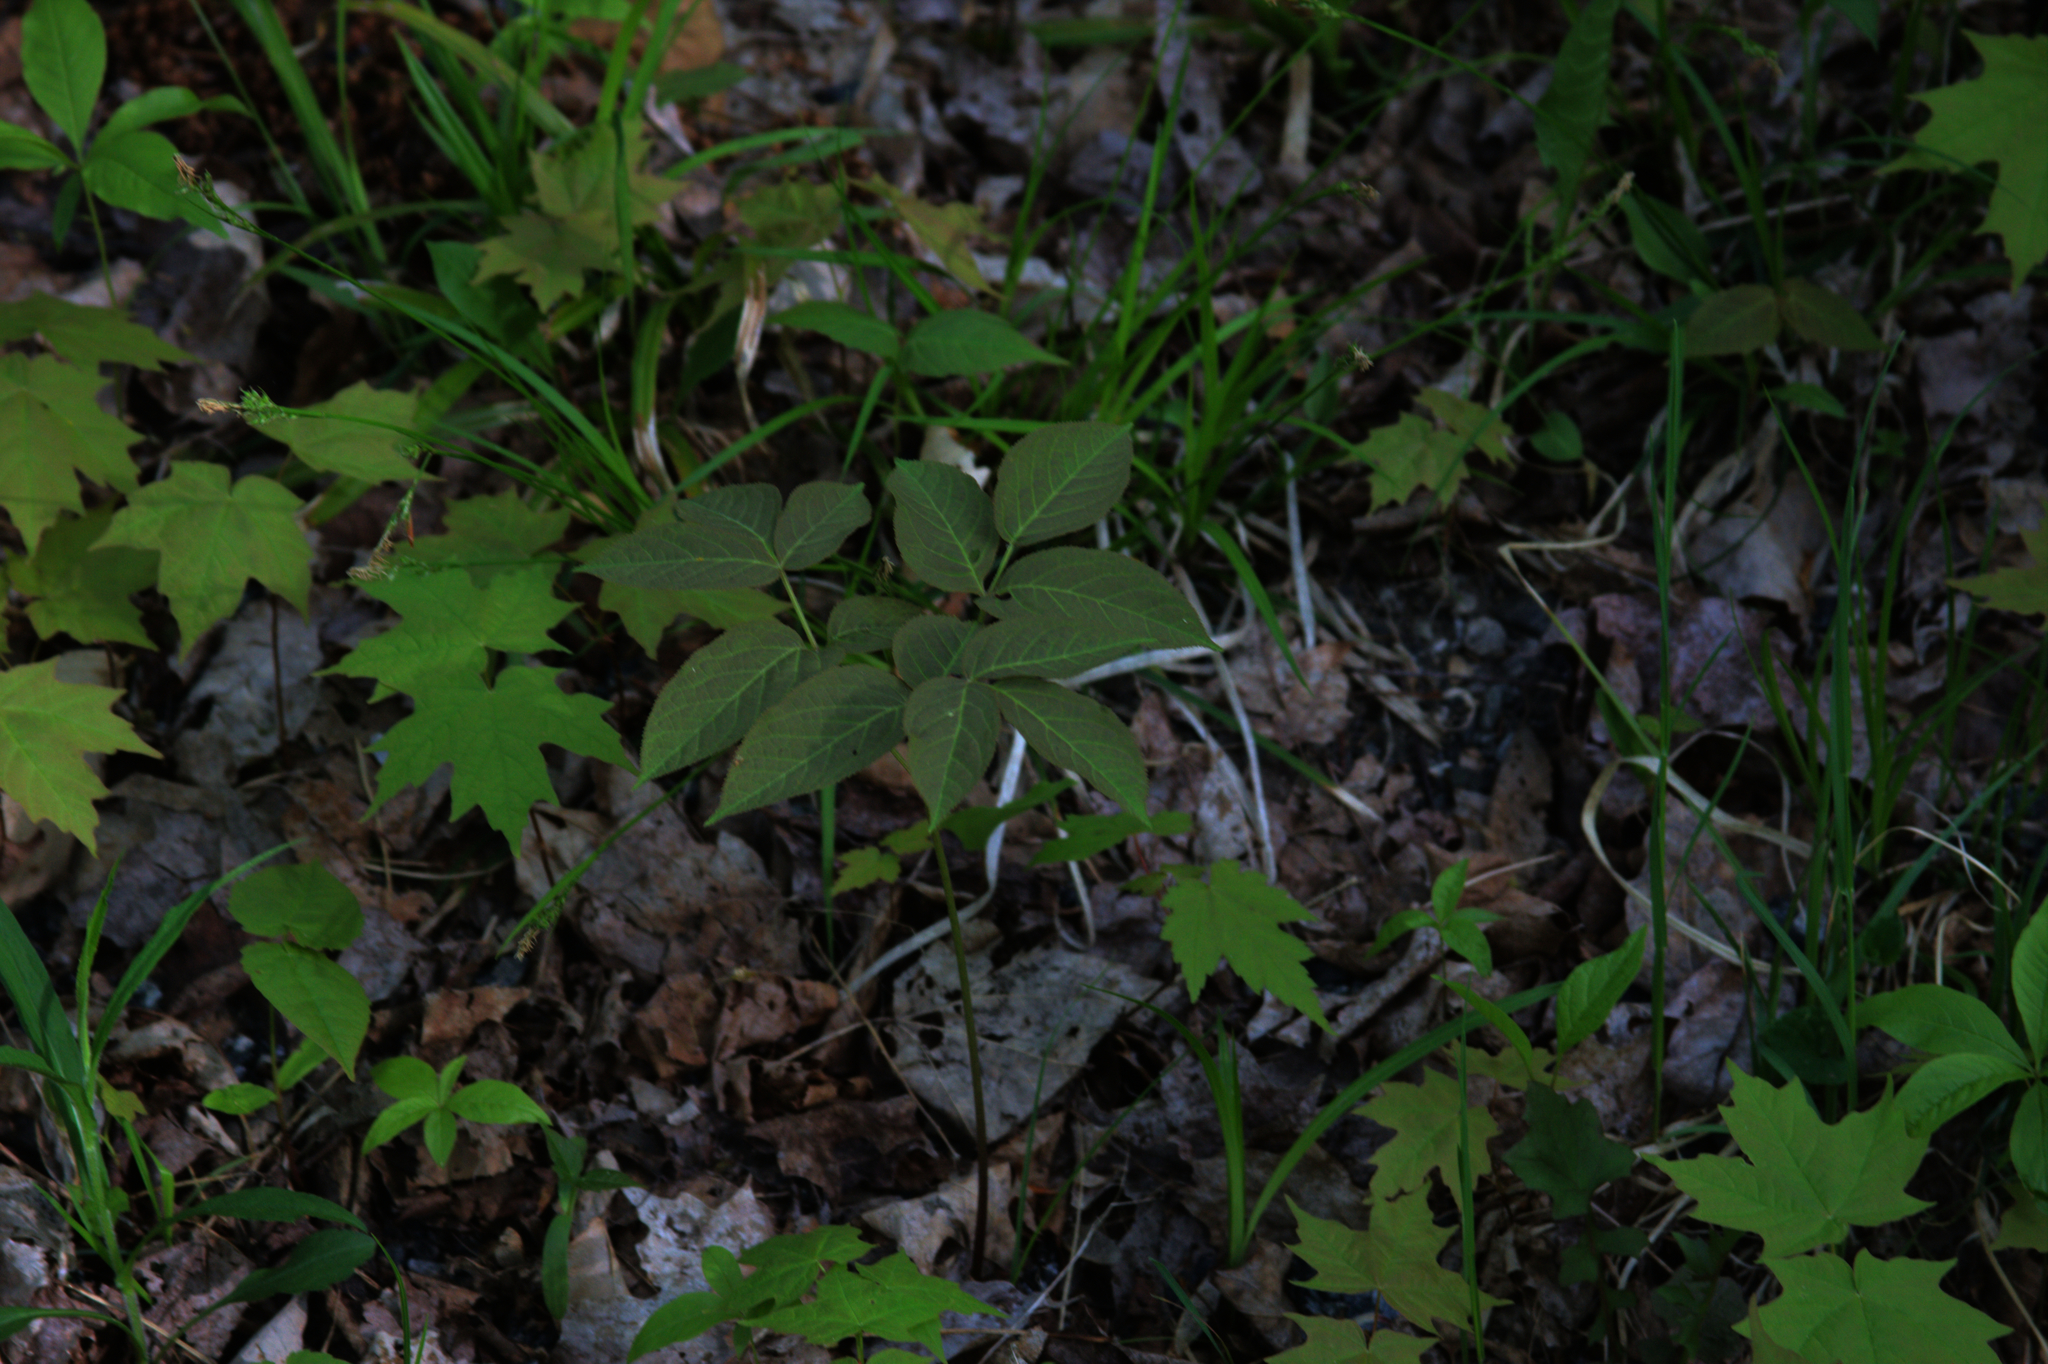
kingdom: Plantae
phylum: Tracheophyta
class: Magnoliopsida
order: Sapindales
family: Sapindaceae
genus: Acer
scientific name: Acer saccharum
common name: Sugar maple
